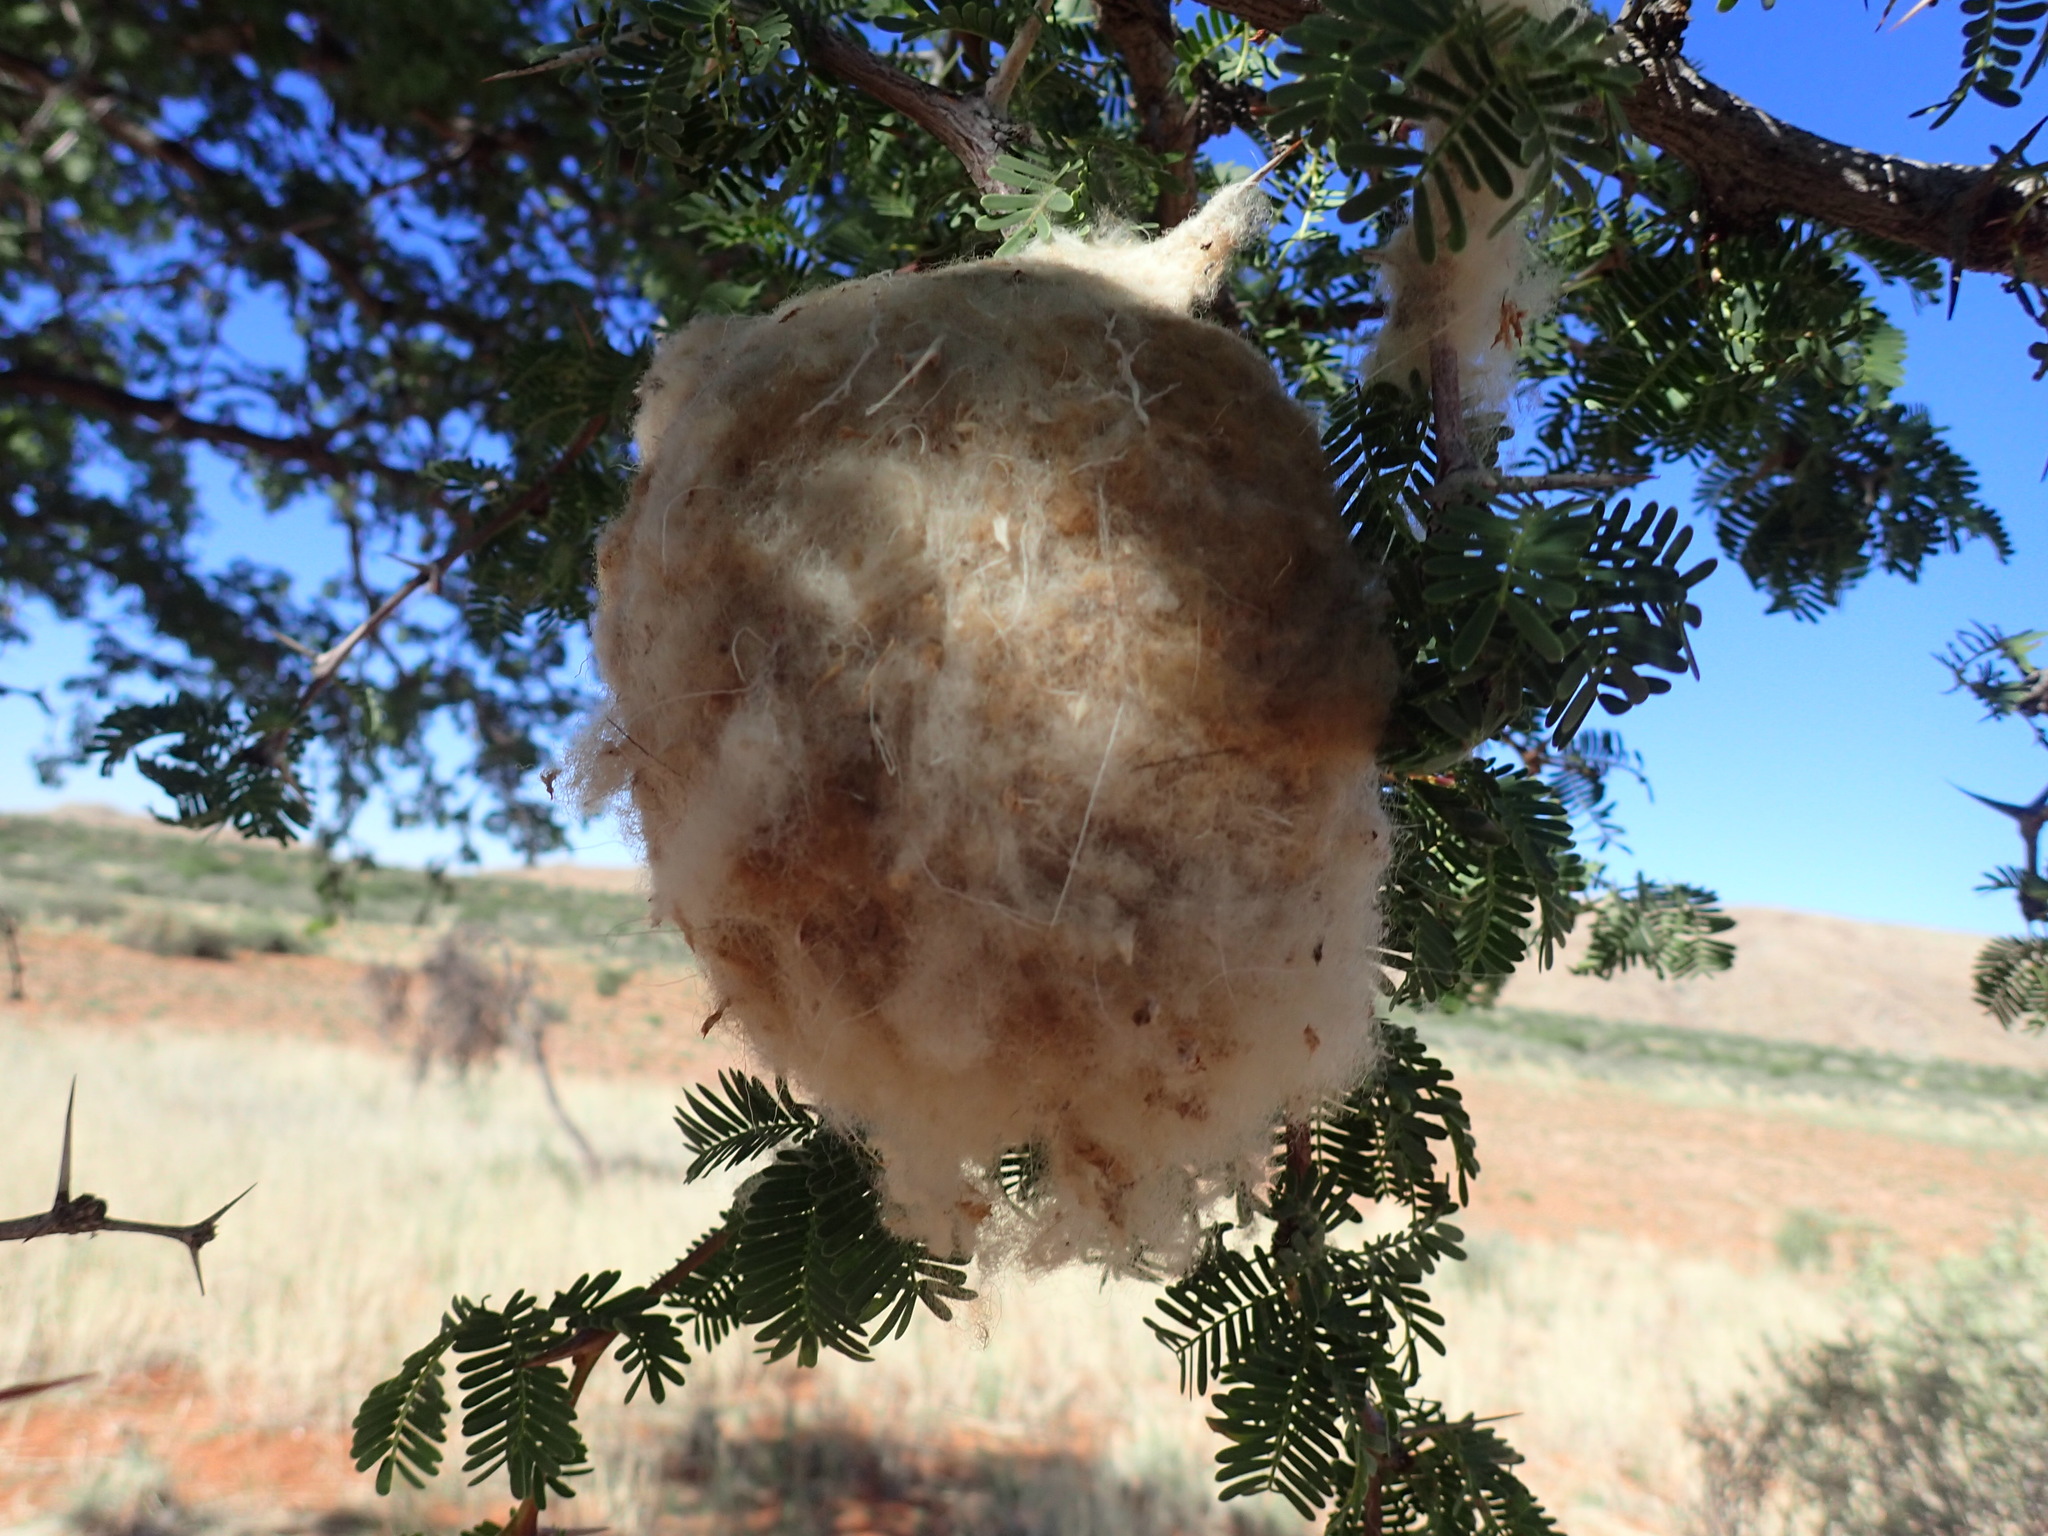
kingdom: Animalia
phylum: Chordata
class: Aves
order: Passeriformes
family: Remizidae
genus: Anthoscopus
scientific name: Anthoscopus minutus
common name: Cape penduline tit
